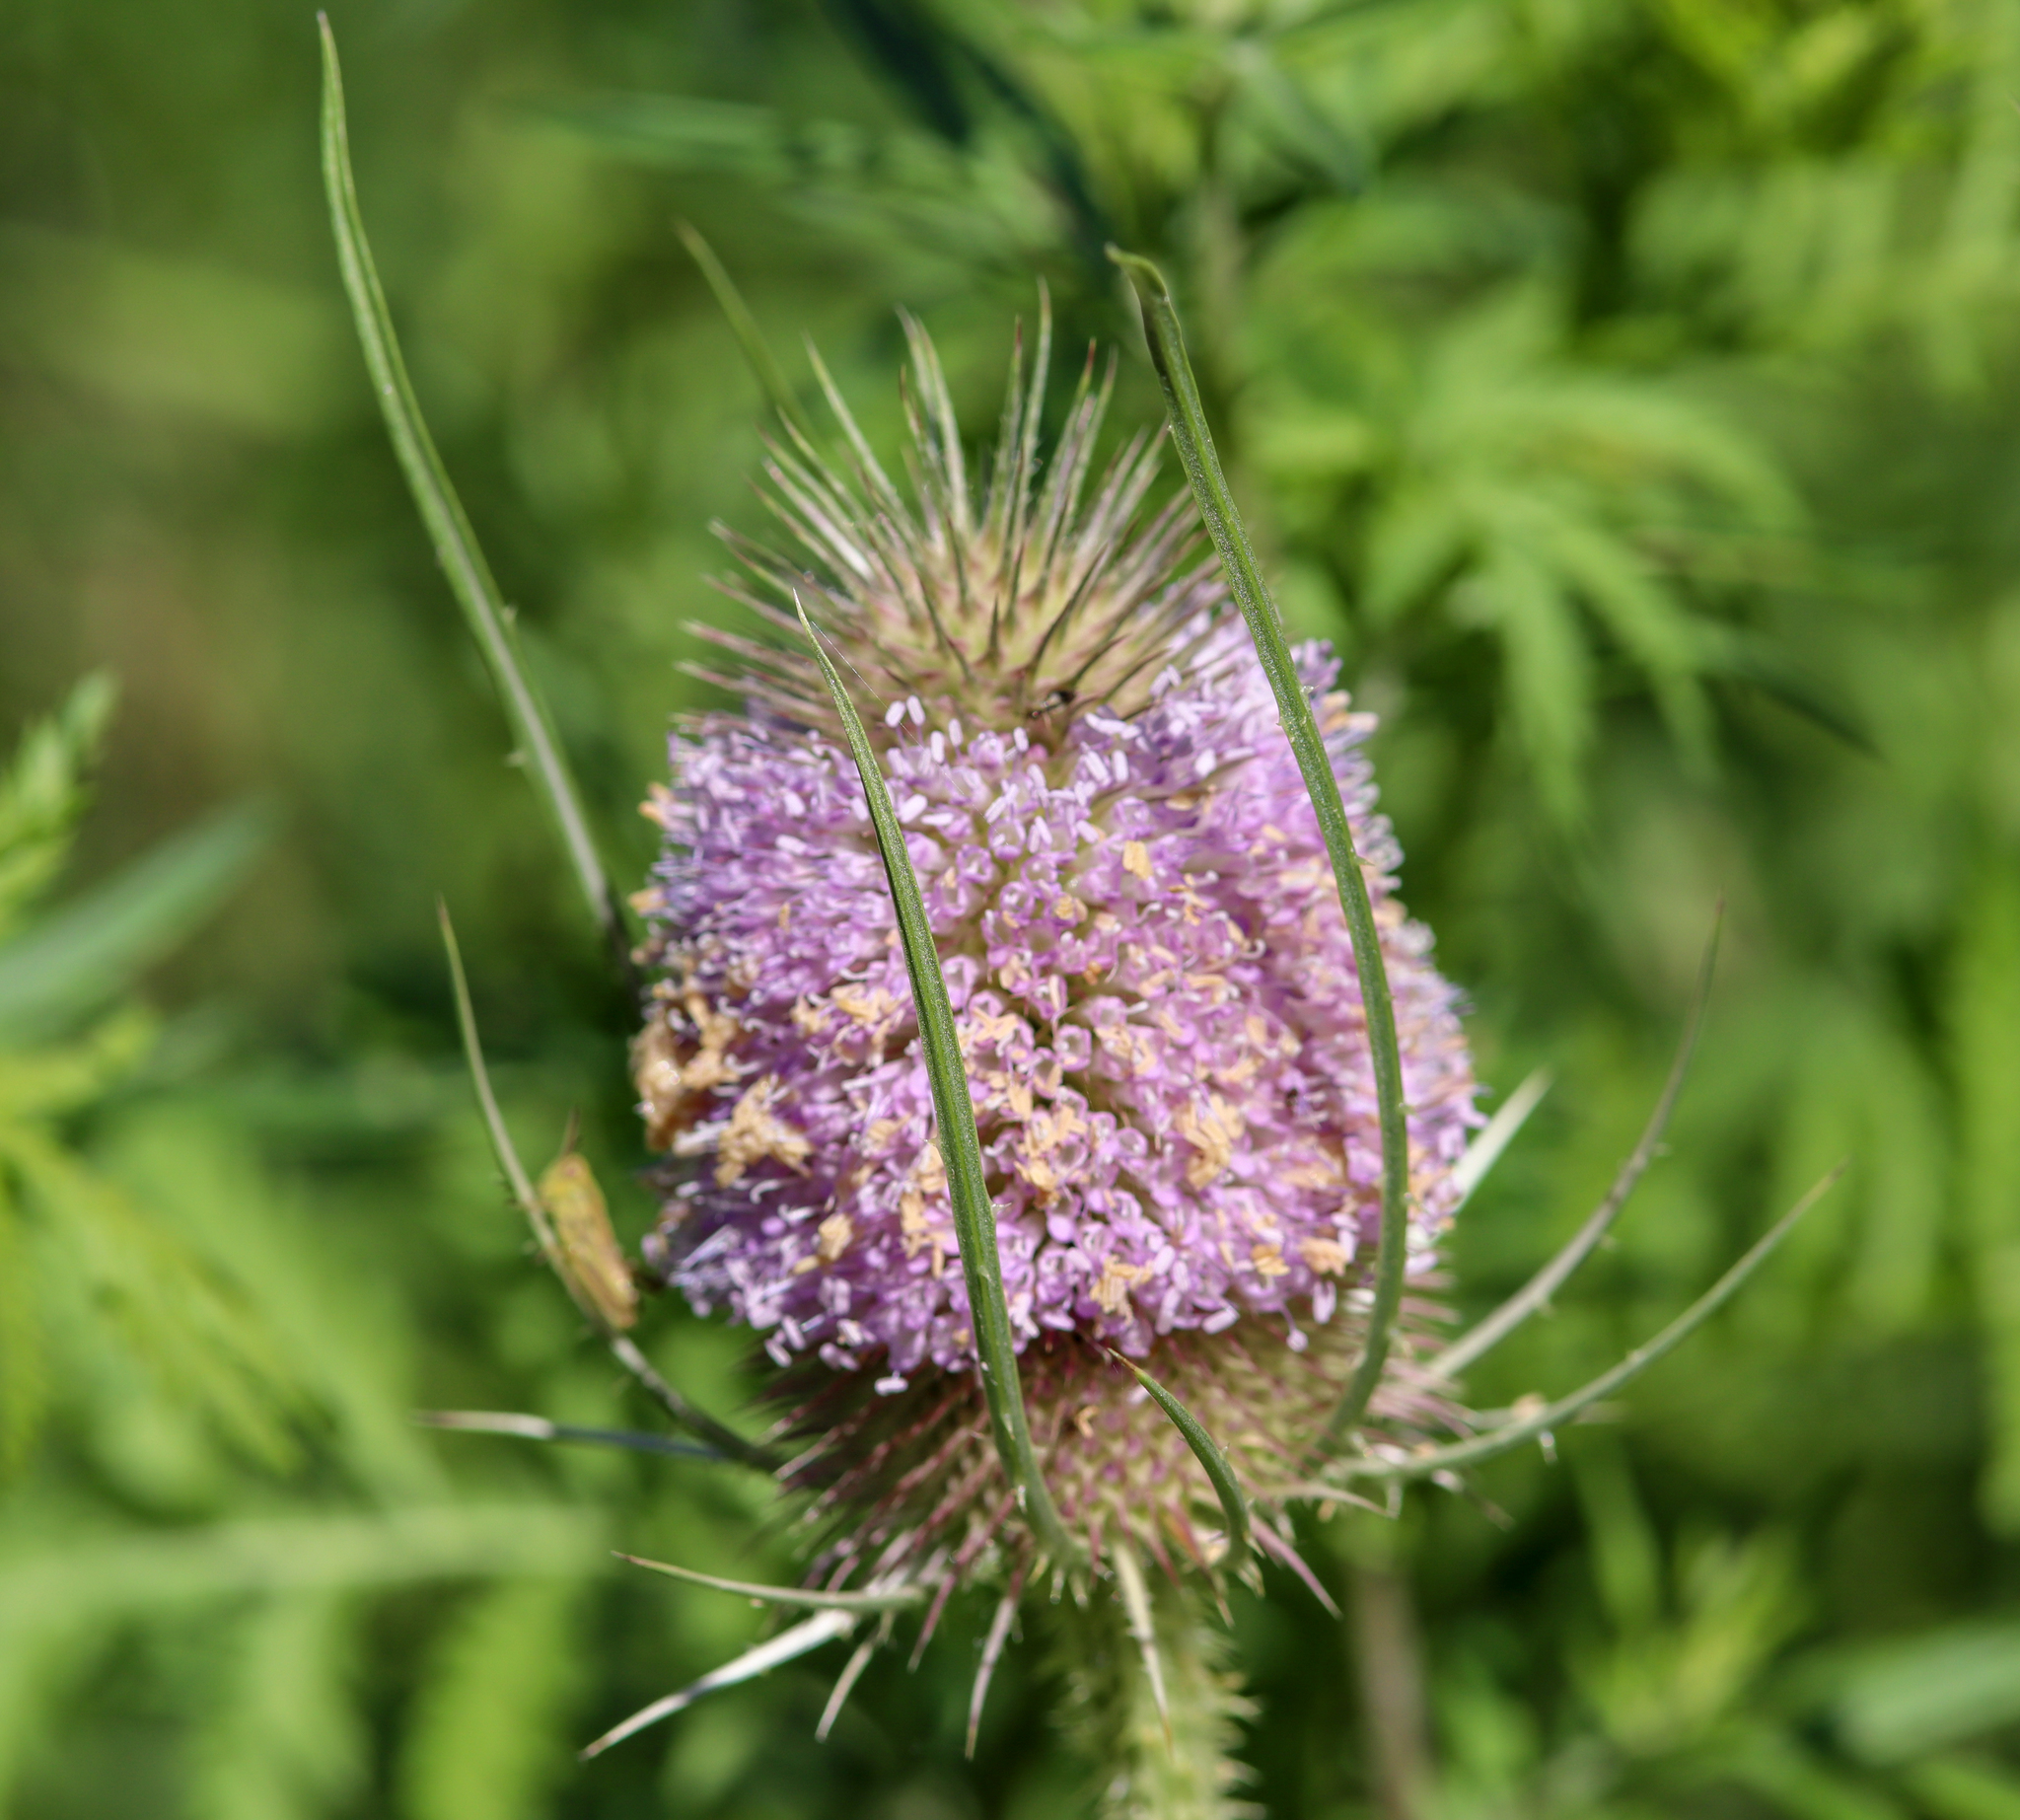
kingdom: Plantae
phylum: Tracheophyta
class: Magnoliopsida
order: Dipsacales
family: Caprifoliaceae
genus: Dipsacus
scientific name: Dipsacus fullonum
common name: Teasel
